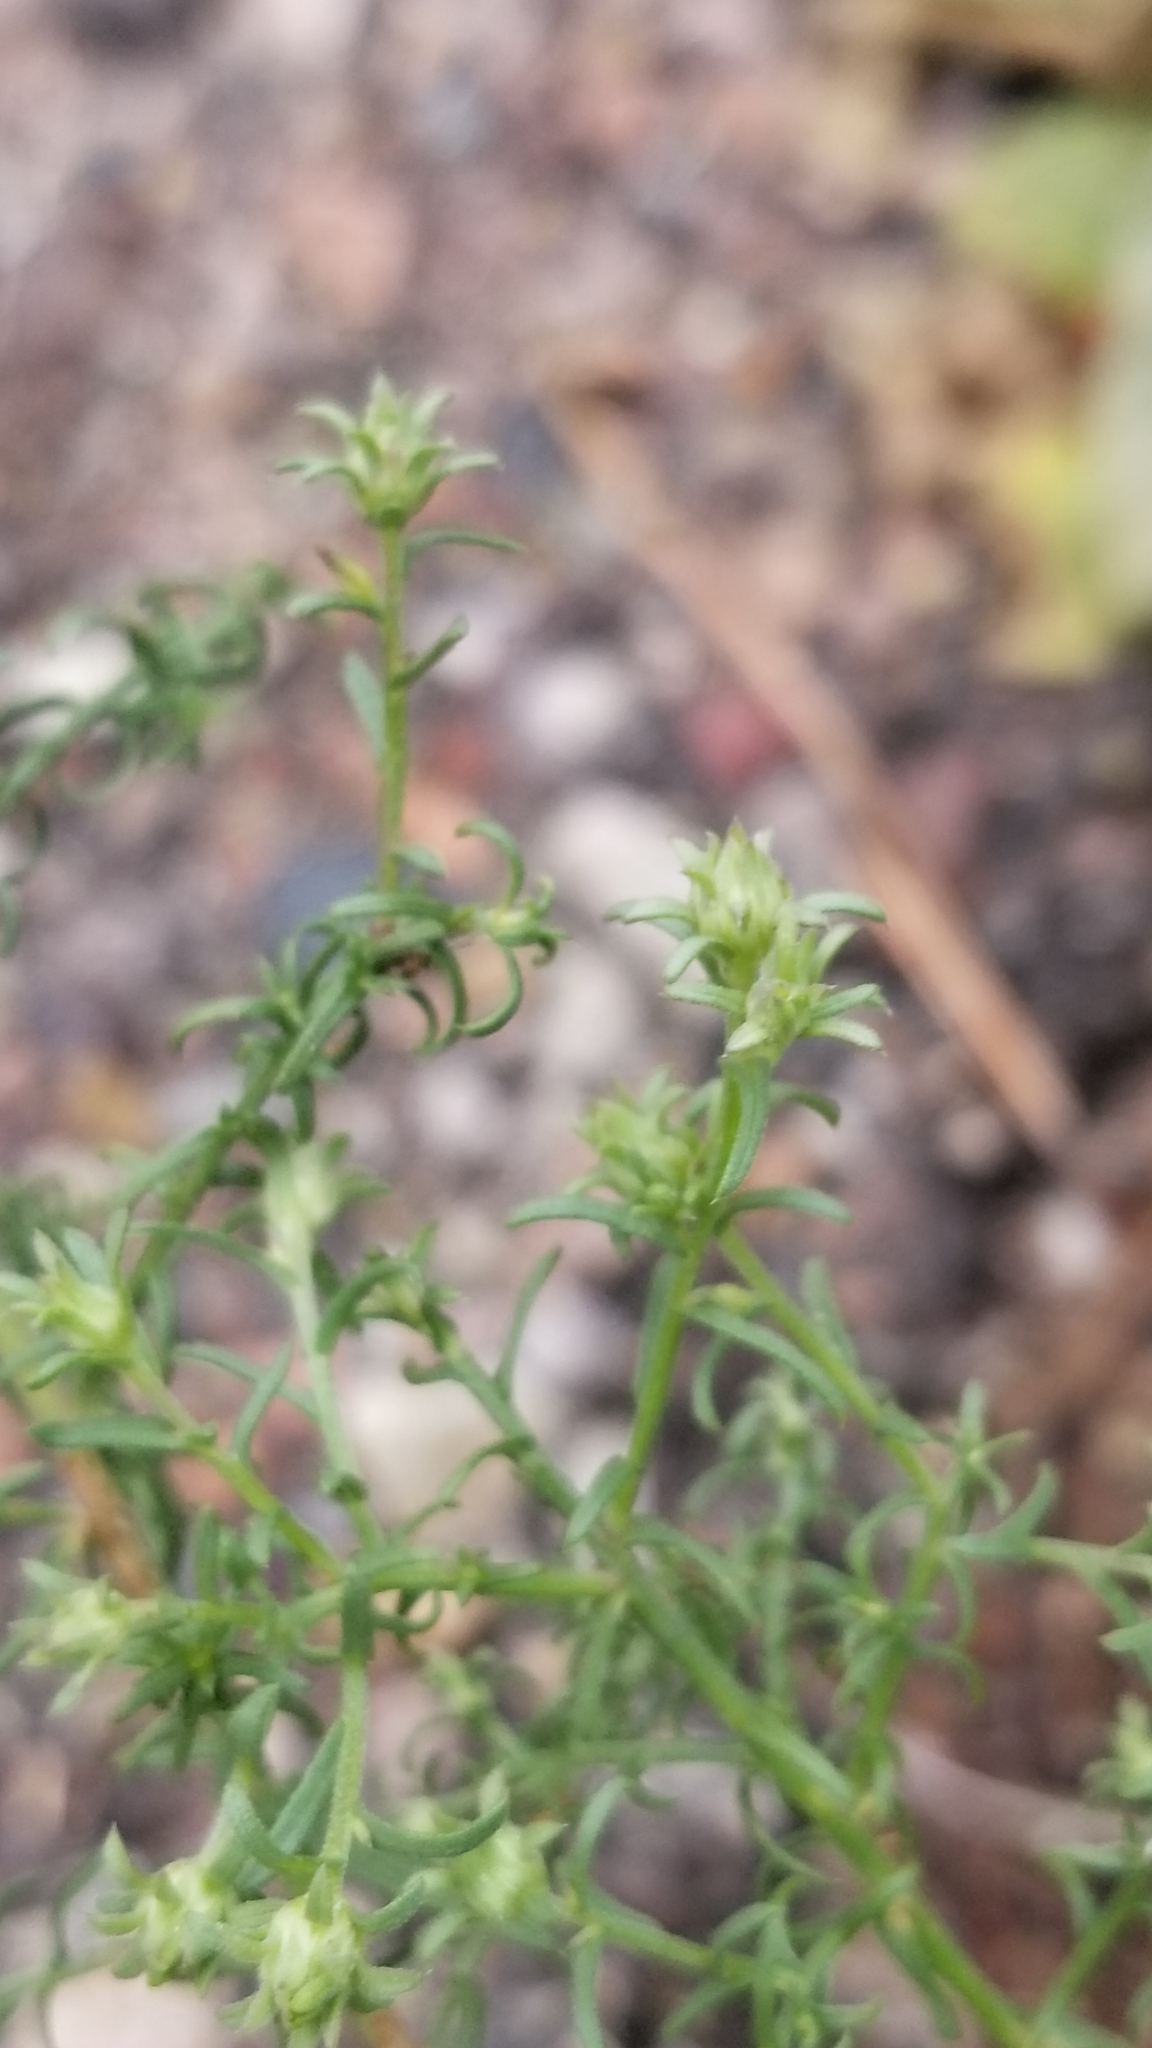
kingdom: Plantae
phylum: Tracheophyta
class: Magnoliopsida
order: Caryophyllales
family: Amaranthaceae
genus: Salsola
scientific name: Salsola tragus
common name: Prickly russian thistle
